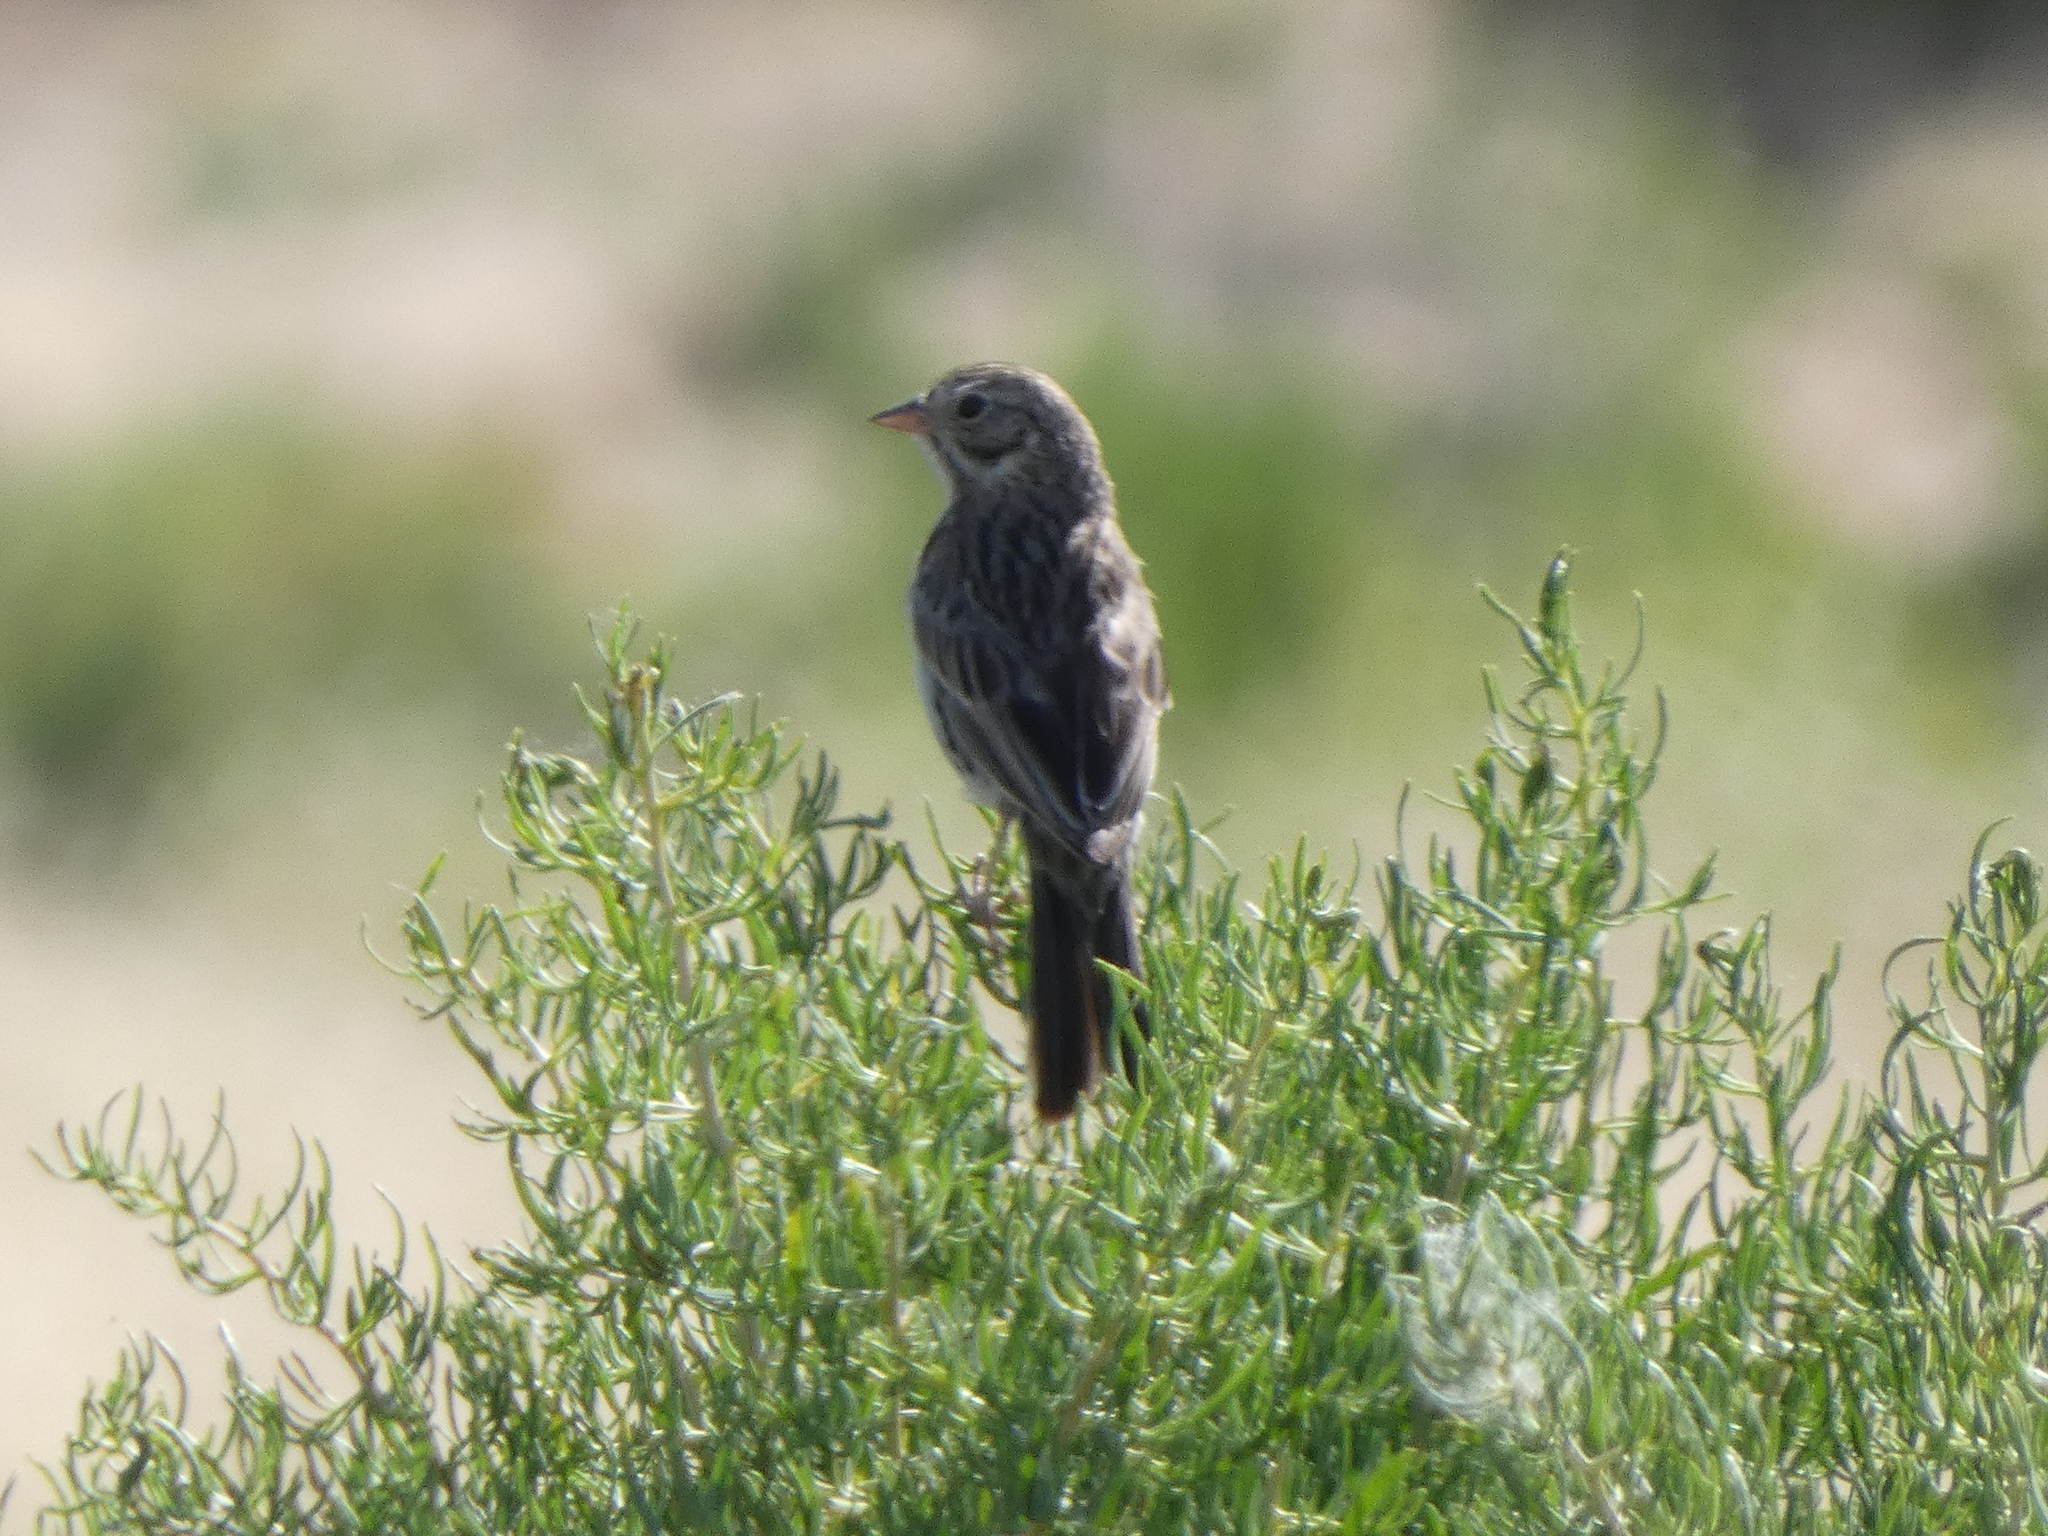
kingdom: Animalia
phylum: Chordata
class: Aves
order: Passeriformes
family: Passerellidae
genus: Spizella
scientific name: Spizella breweri
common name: Brewer's sparrow
